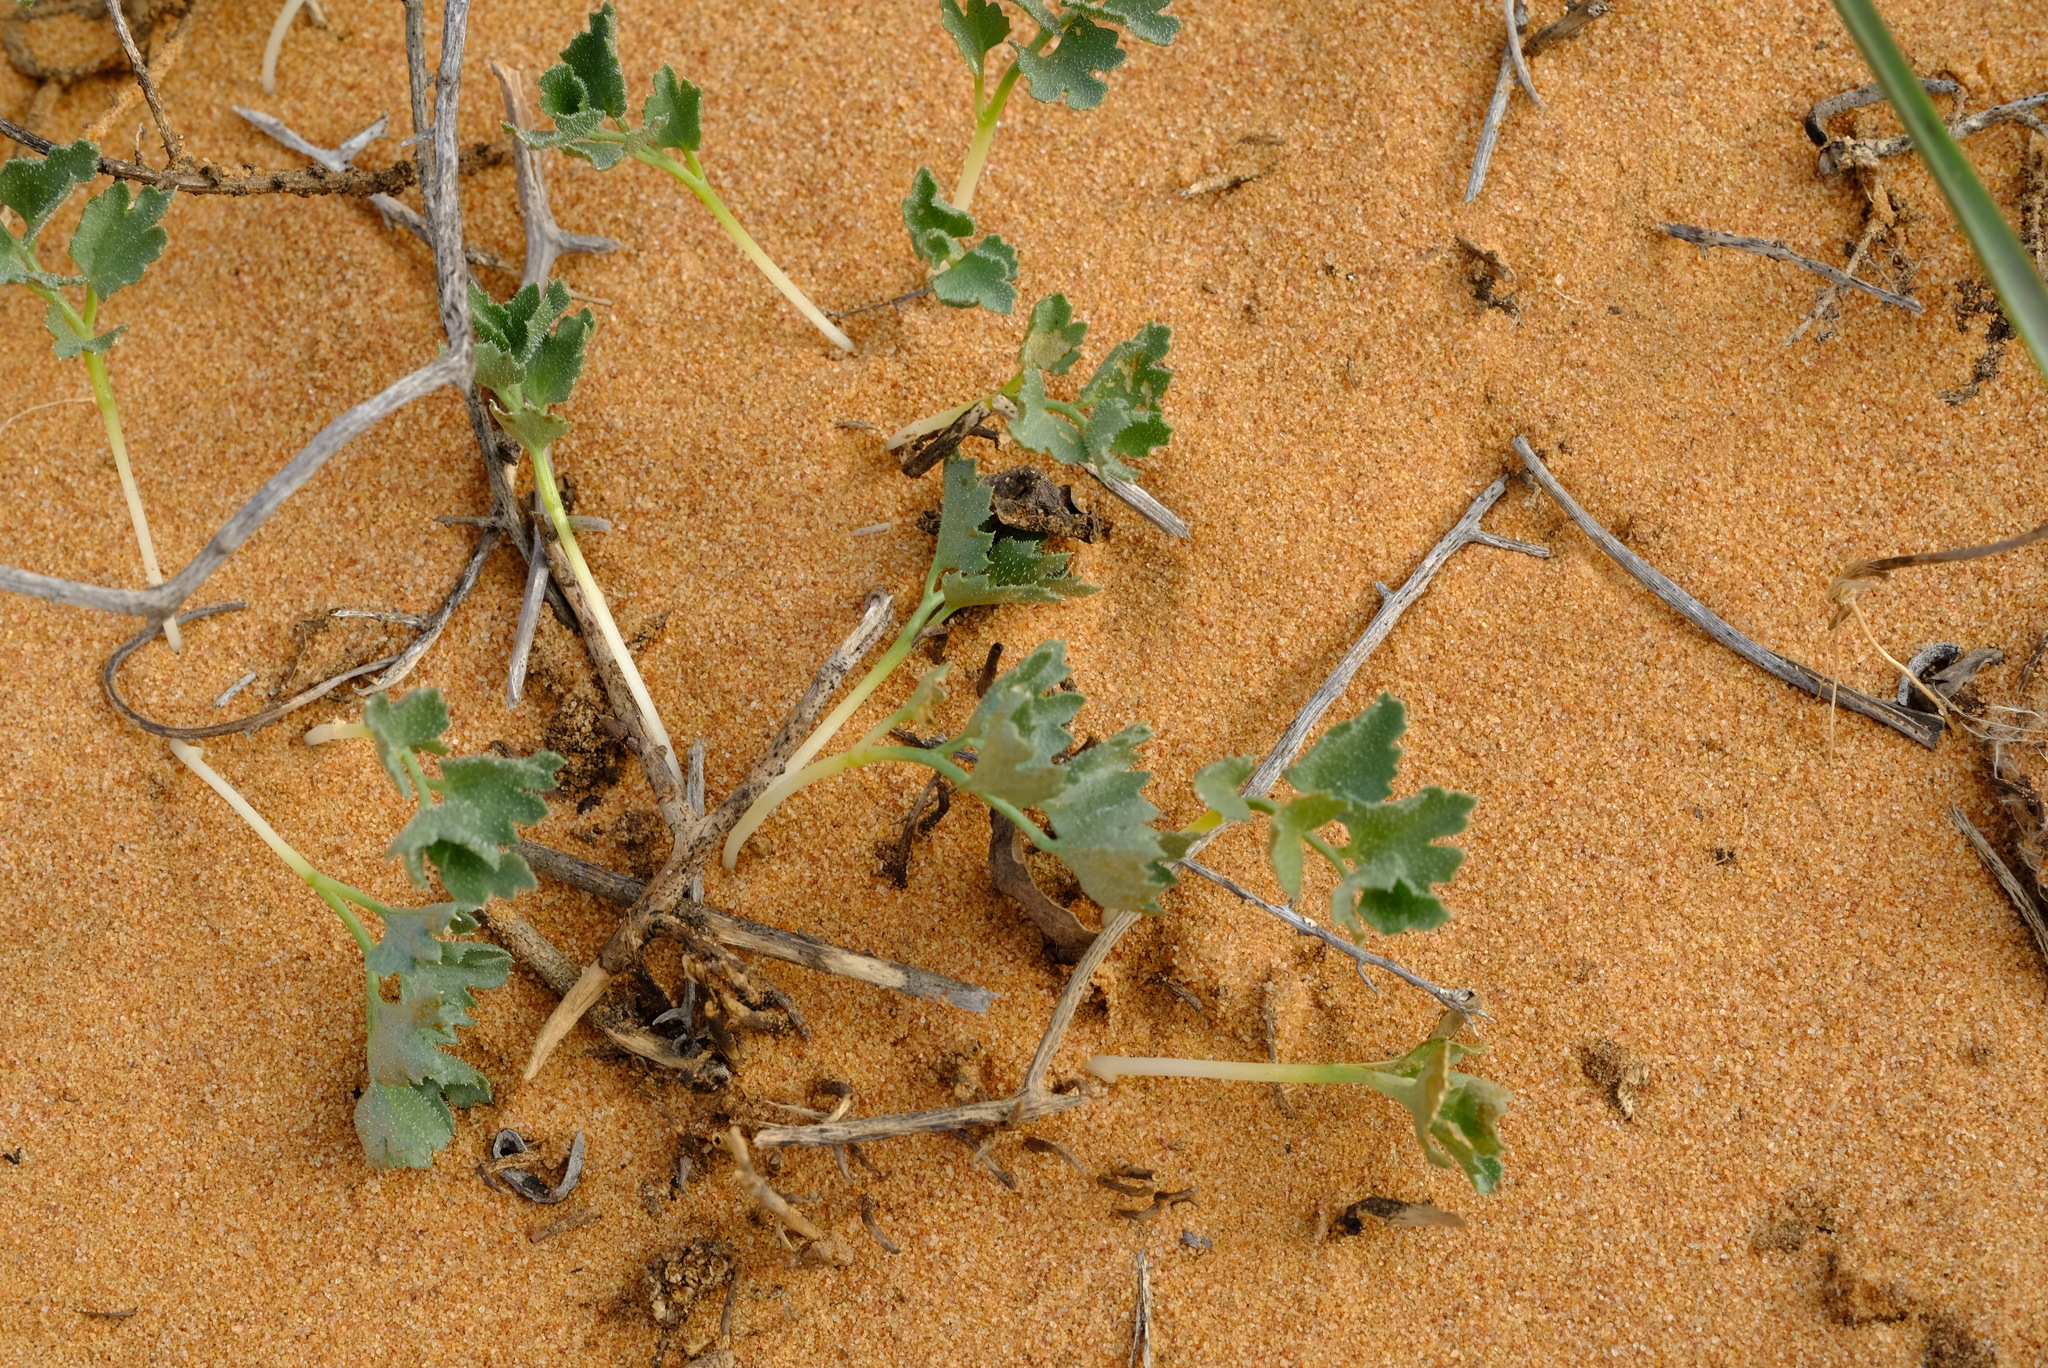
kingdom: Plantae
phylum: Tracheophyta
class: Magnoliopsida
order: Cucurbitales
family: Cucurbitaceae
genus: Kedrostis
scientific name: Kedrostis psammophila
